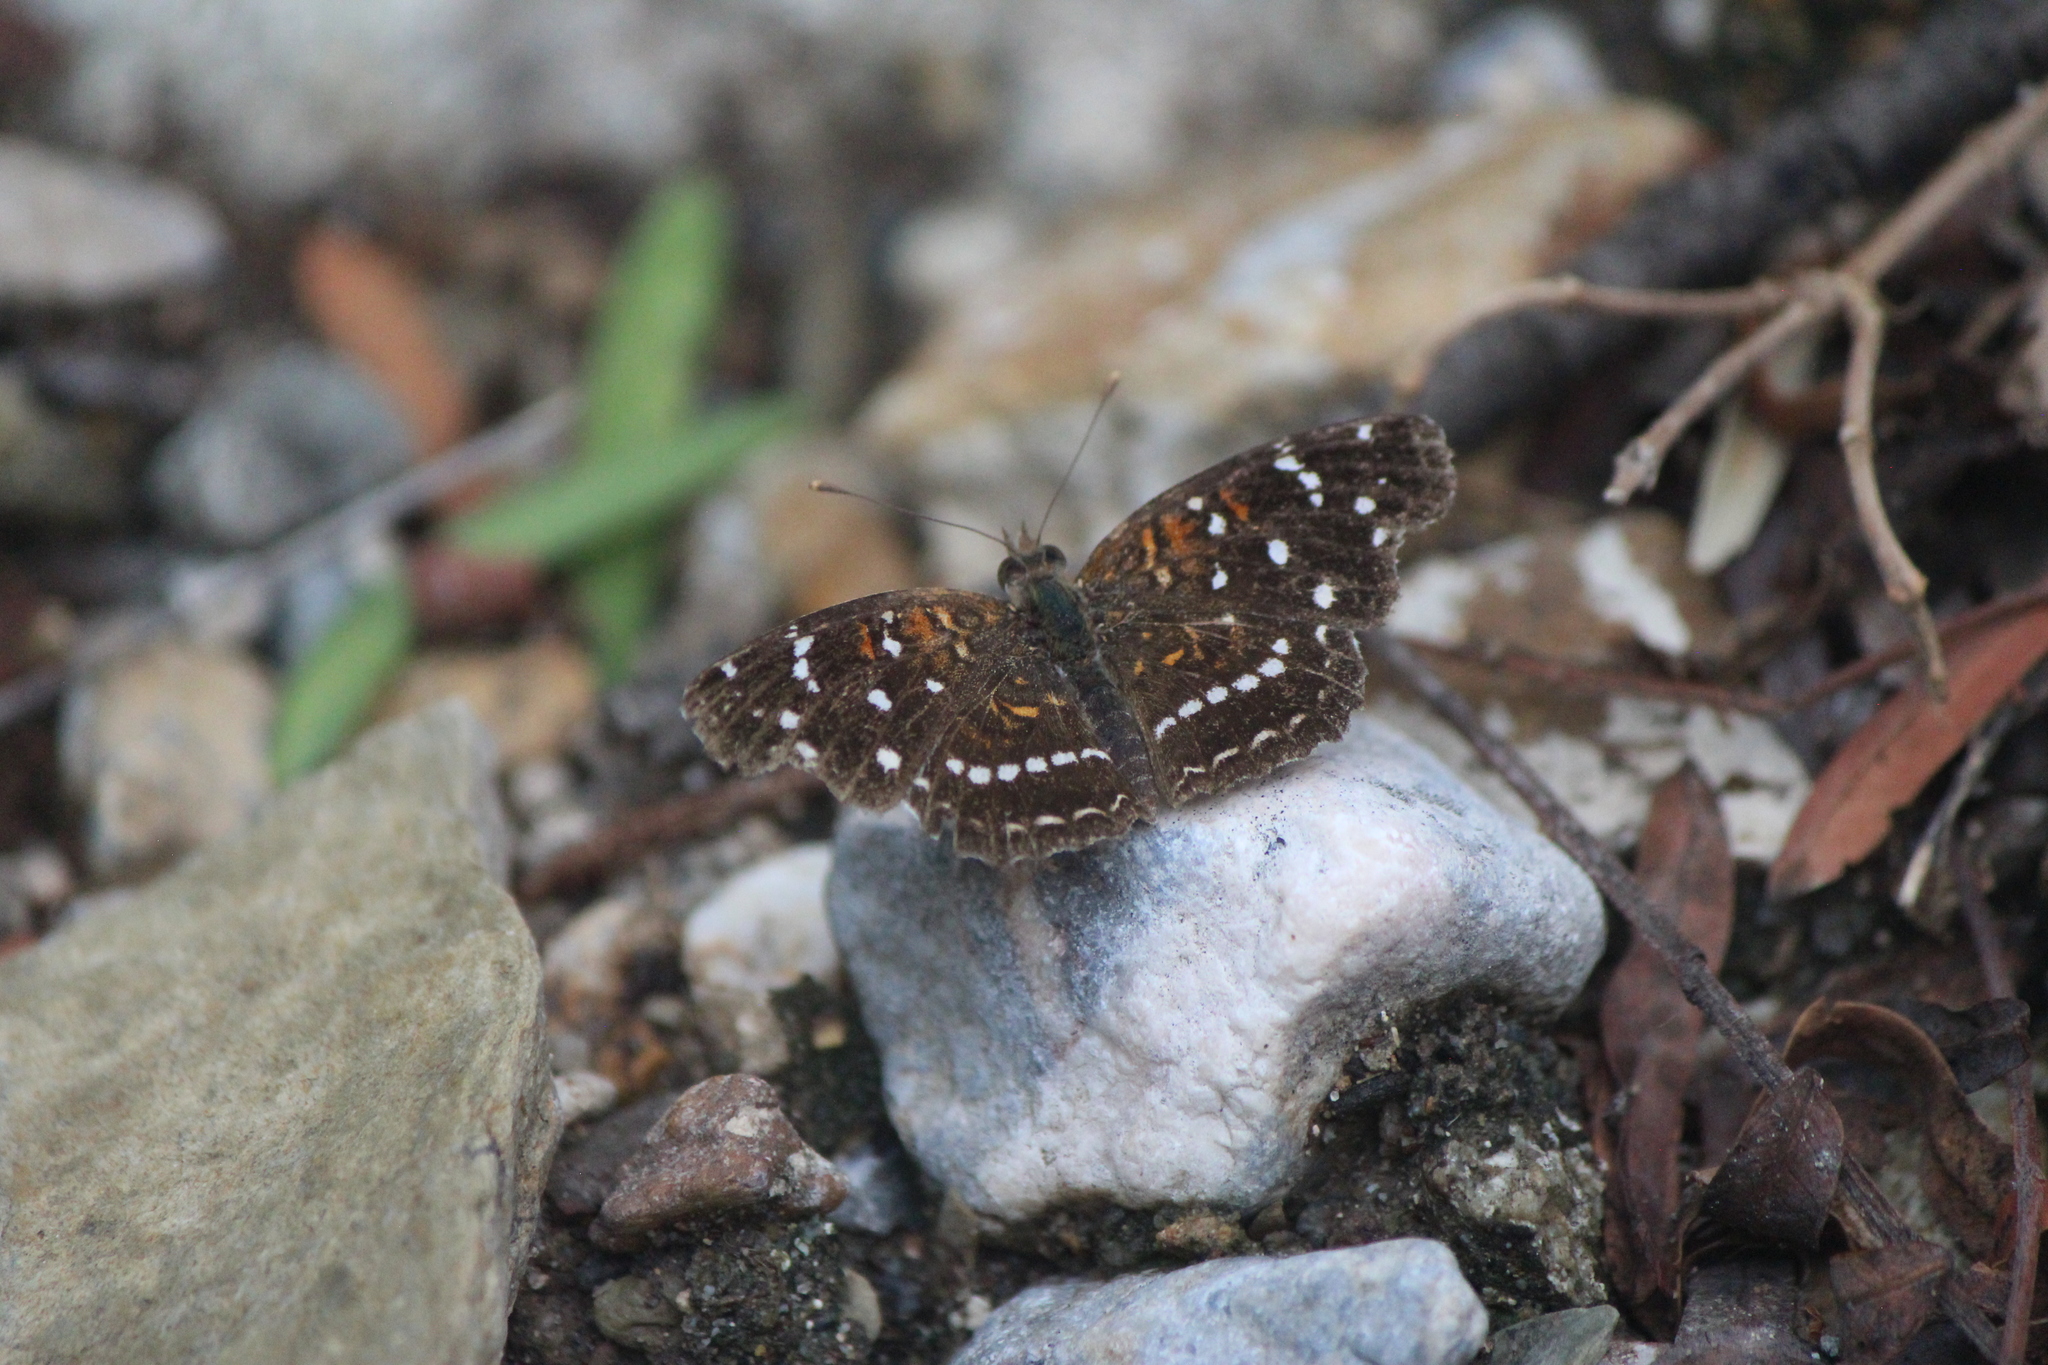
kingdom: Animalia
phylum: Arthropoda
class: Insecta
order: Lepidoptera
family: Nymphalidae
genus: Anthanassa
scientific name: Anthanassa texana
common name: Texan crescent
